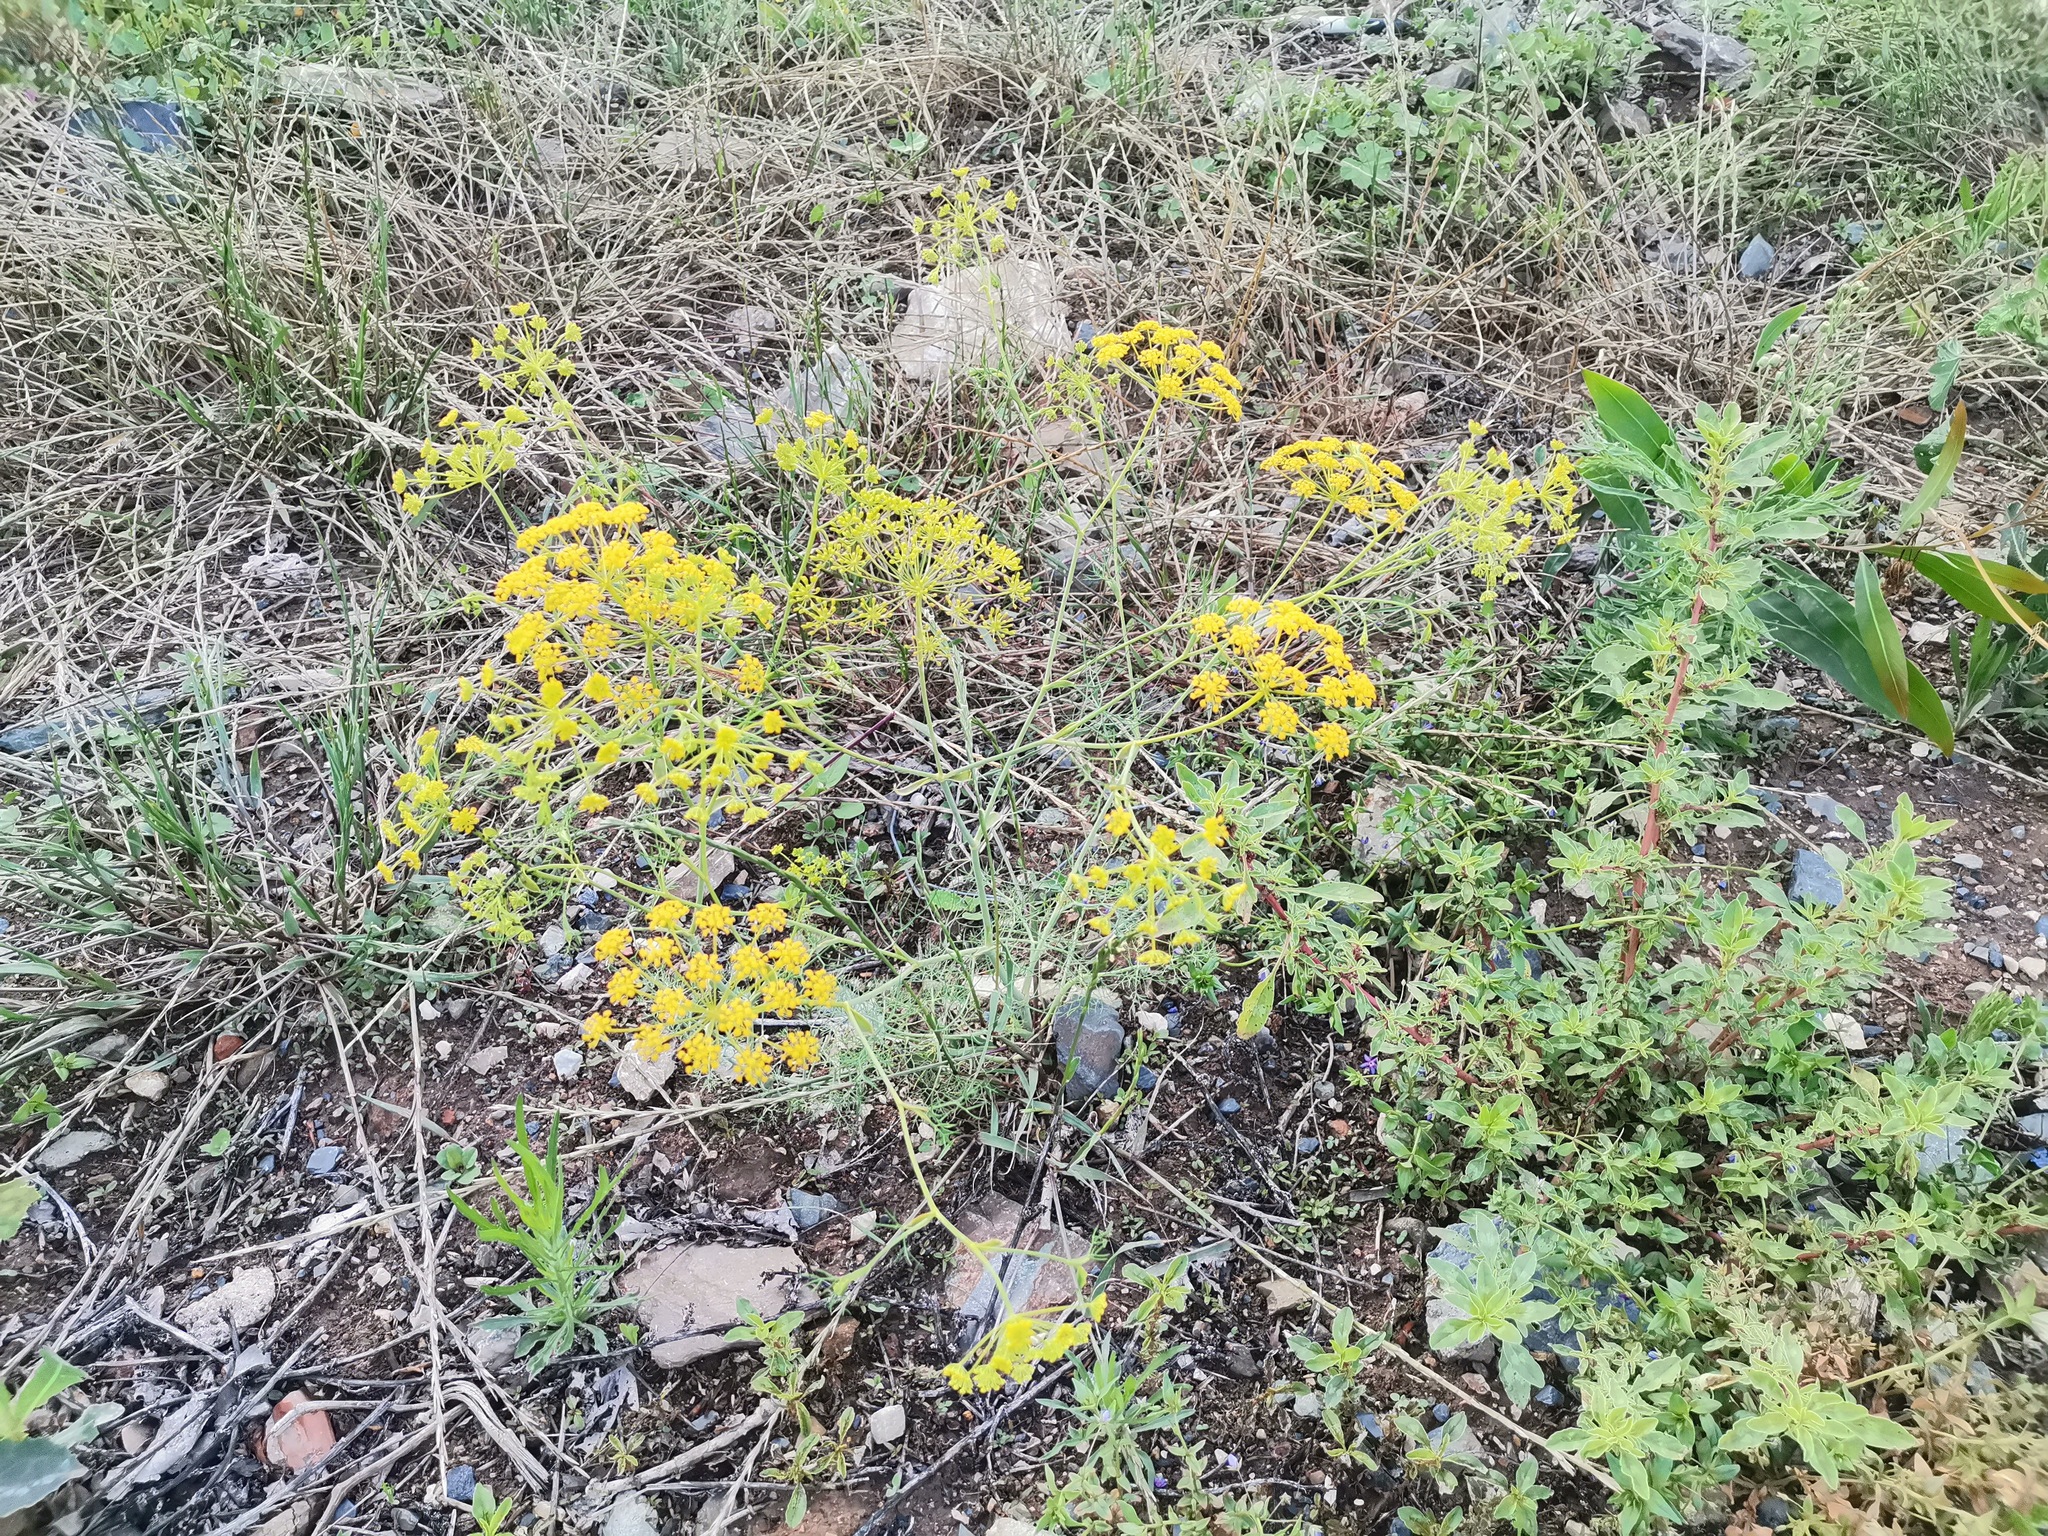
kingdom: Plantae
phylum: Tracheophyta
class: Magnoliopsida
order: Apiales
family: Apiaceae
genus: Foeniculum
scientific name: Foeniculum vulgare
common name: Fennel
